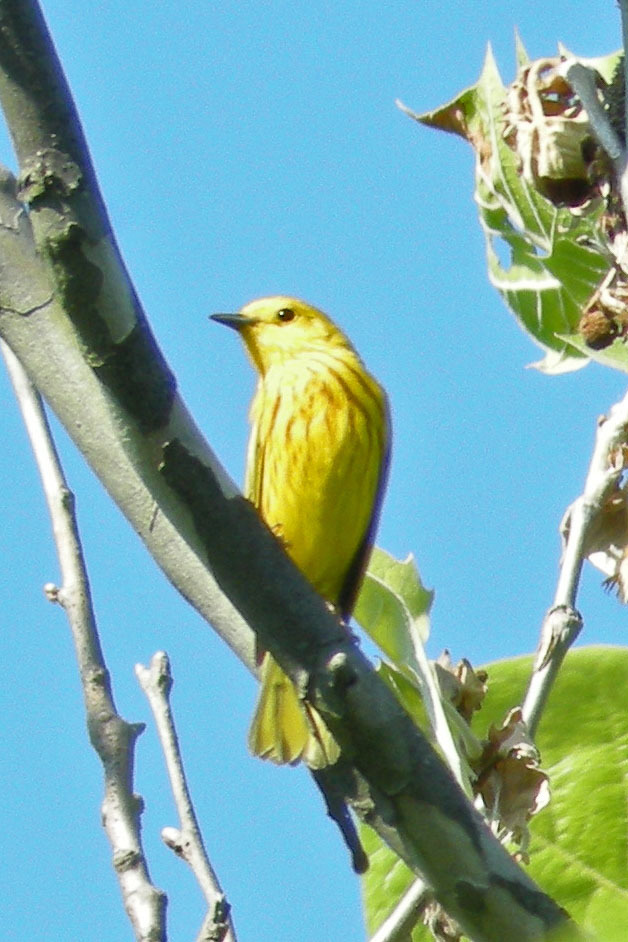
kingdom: Animalia
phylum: Chordata
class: Aves
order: Passeriformes
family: Parulidae
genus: Setophaga
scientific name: Setophaga petechia
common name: Yellow warbler
